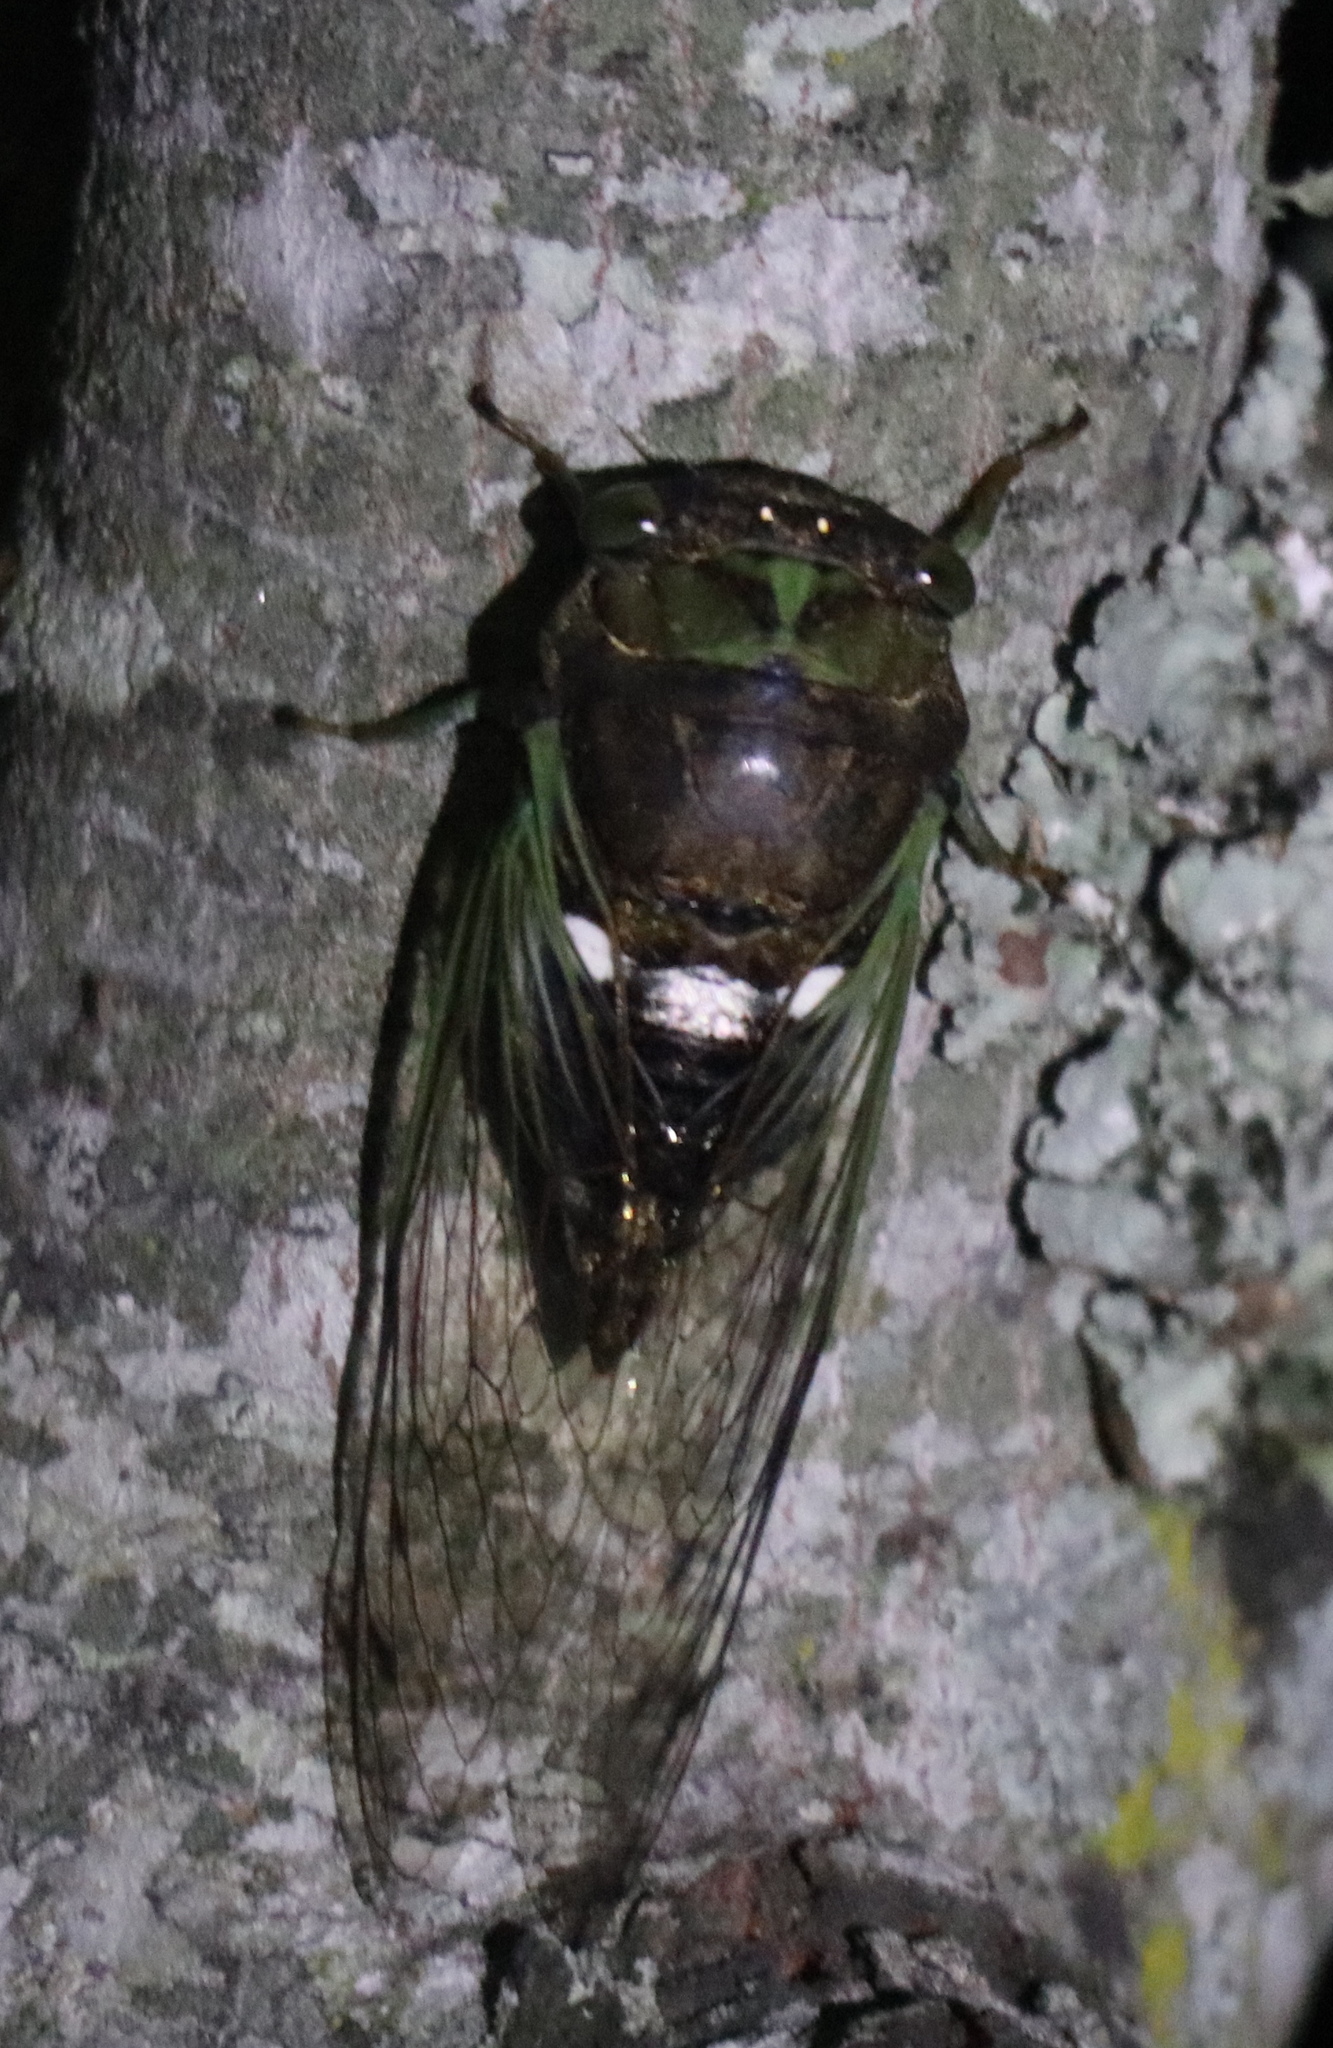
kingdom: Animalia
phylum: Arthropoda
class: Insecta
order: Hemiptera
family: Cicadidae
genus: Neotibicen
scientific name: Neotibicen tibicen
